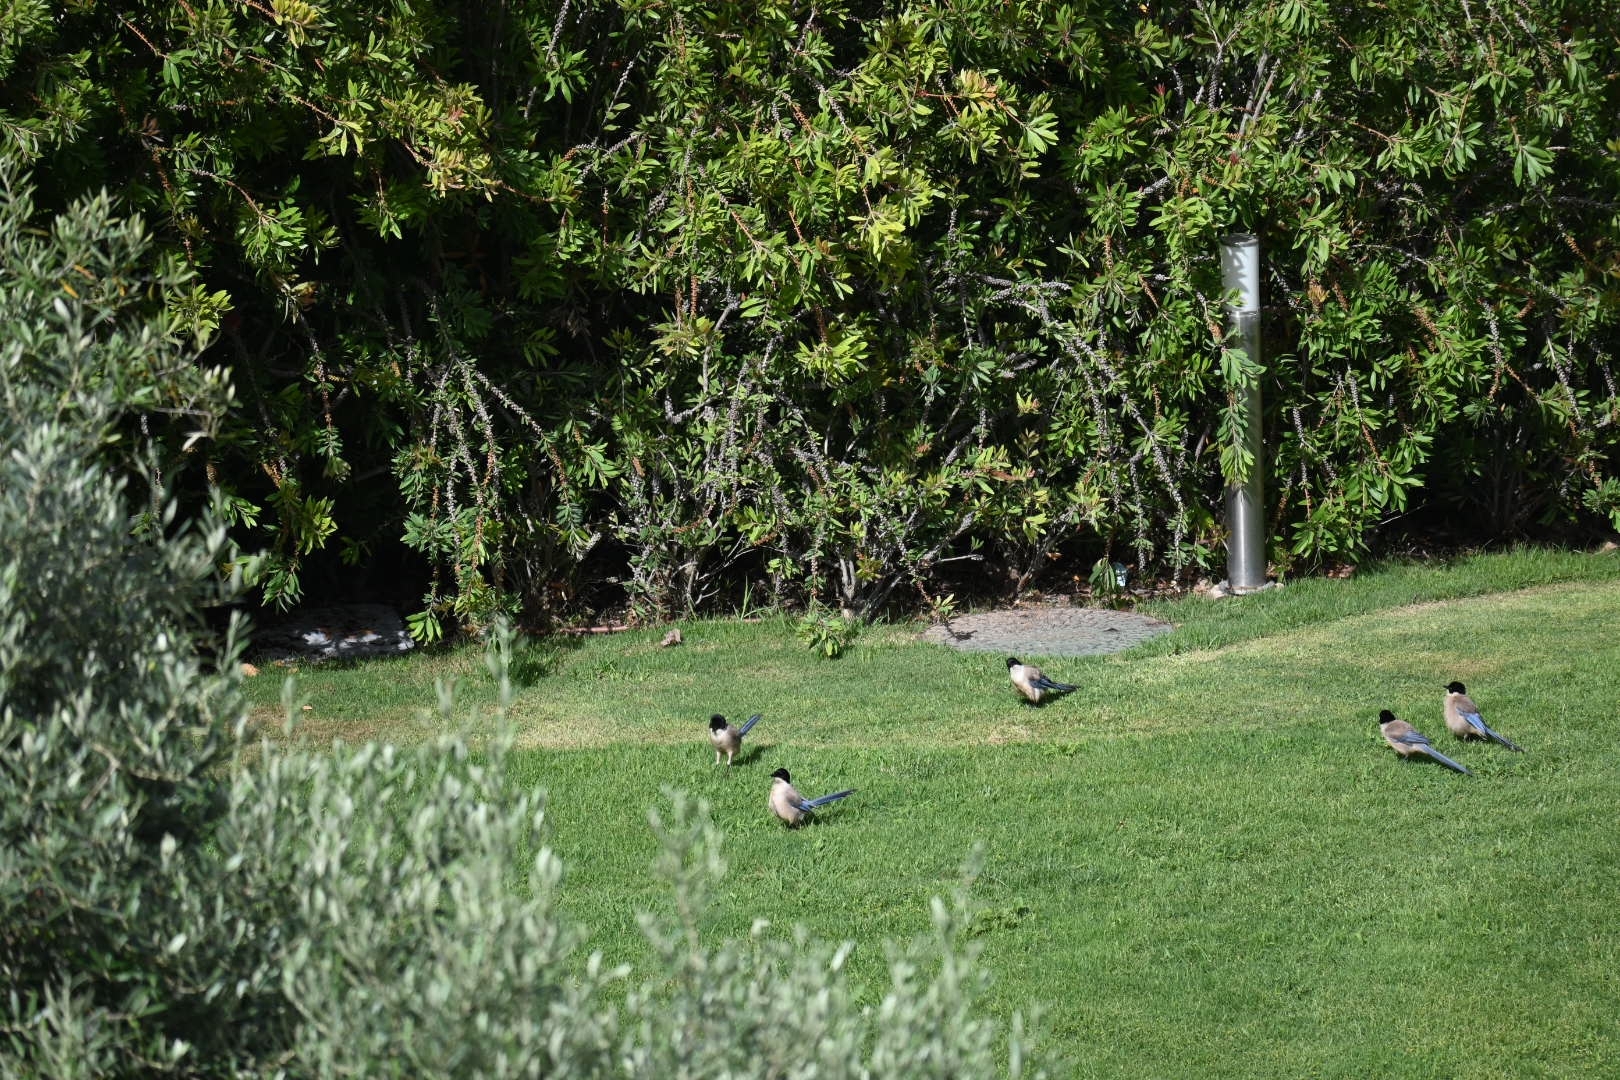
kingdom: Animalia
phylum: Chordata
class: Aves
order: Passeriformes
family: Corvidae
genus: Cyanopica
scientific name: Cyanopica cooki
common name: Iberian magpie
